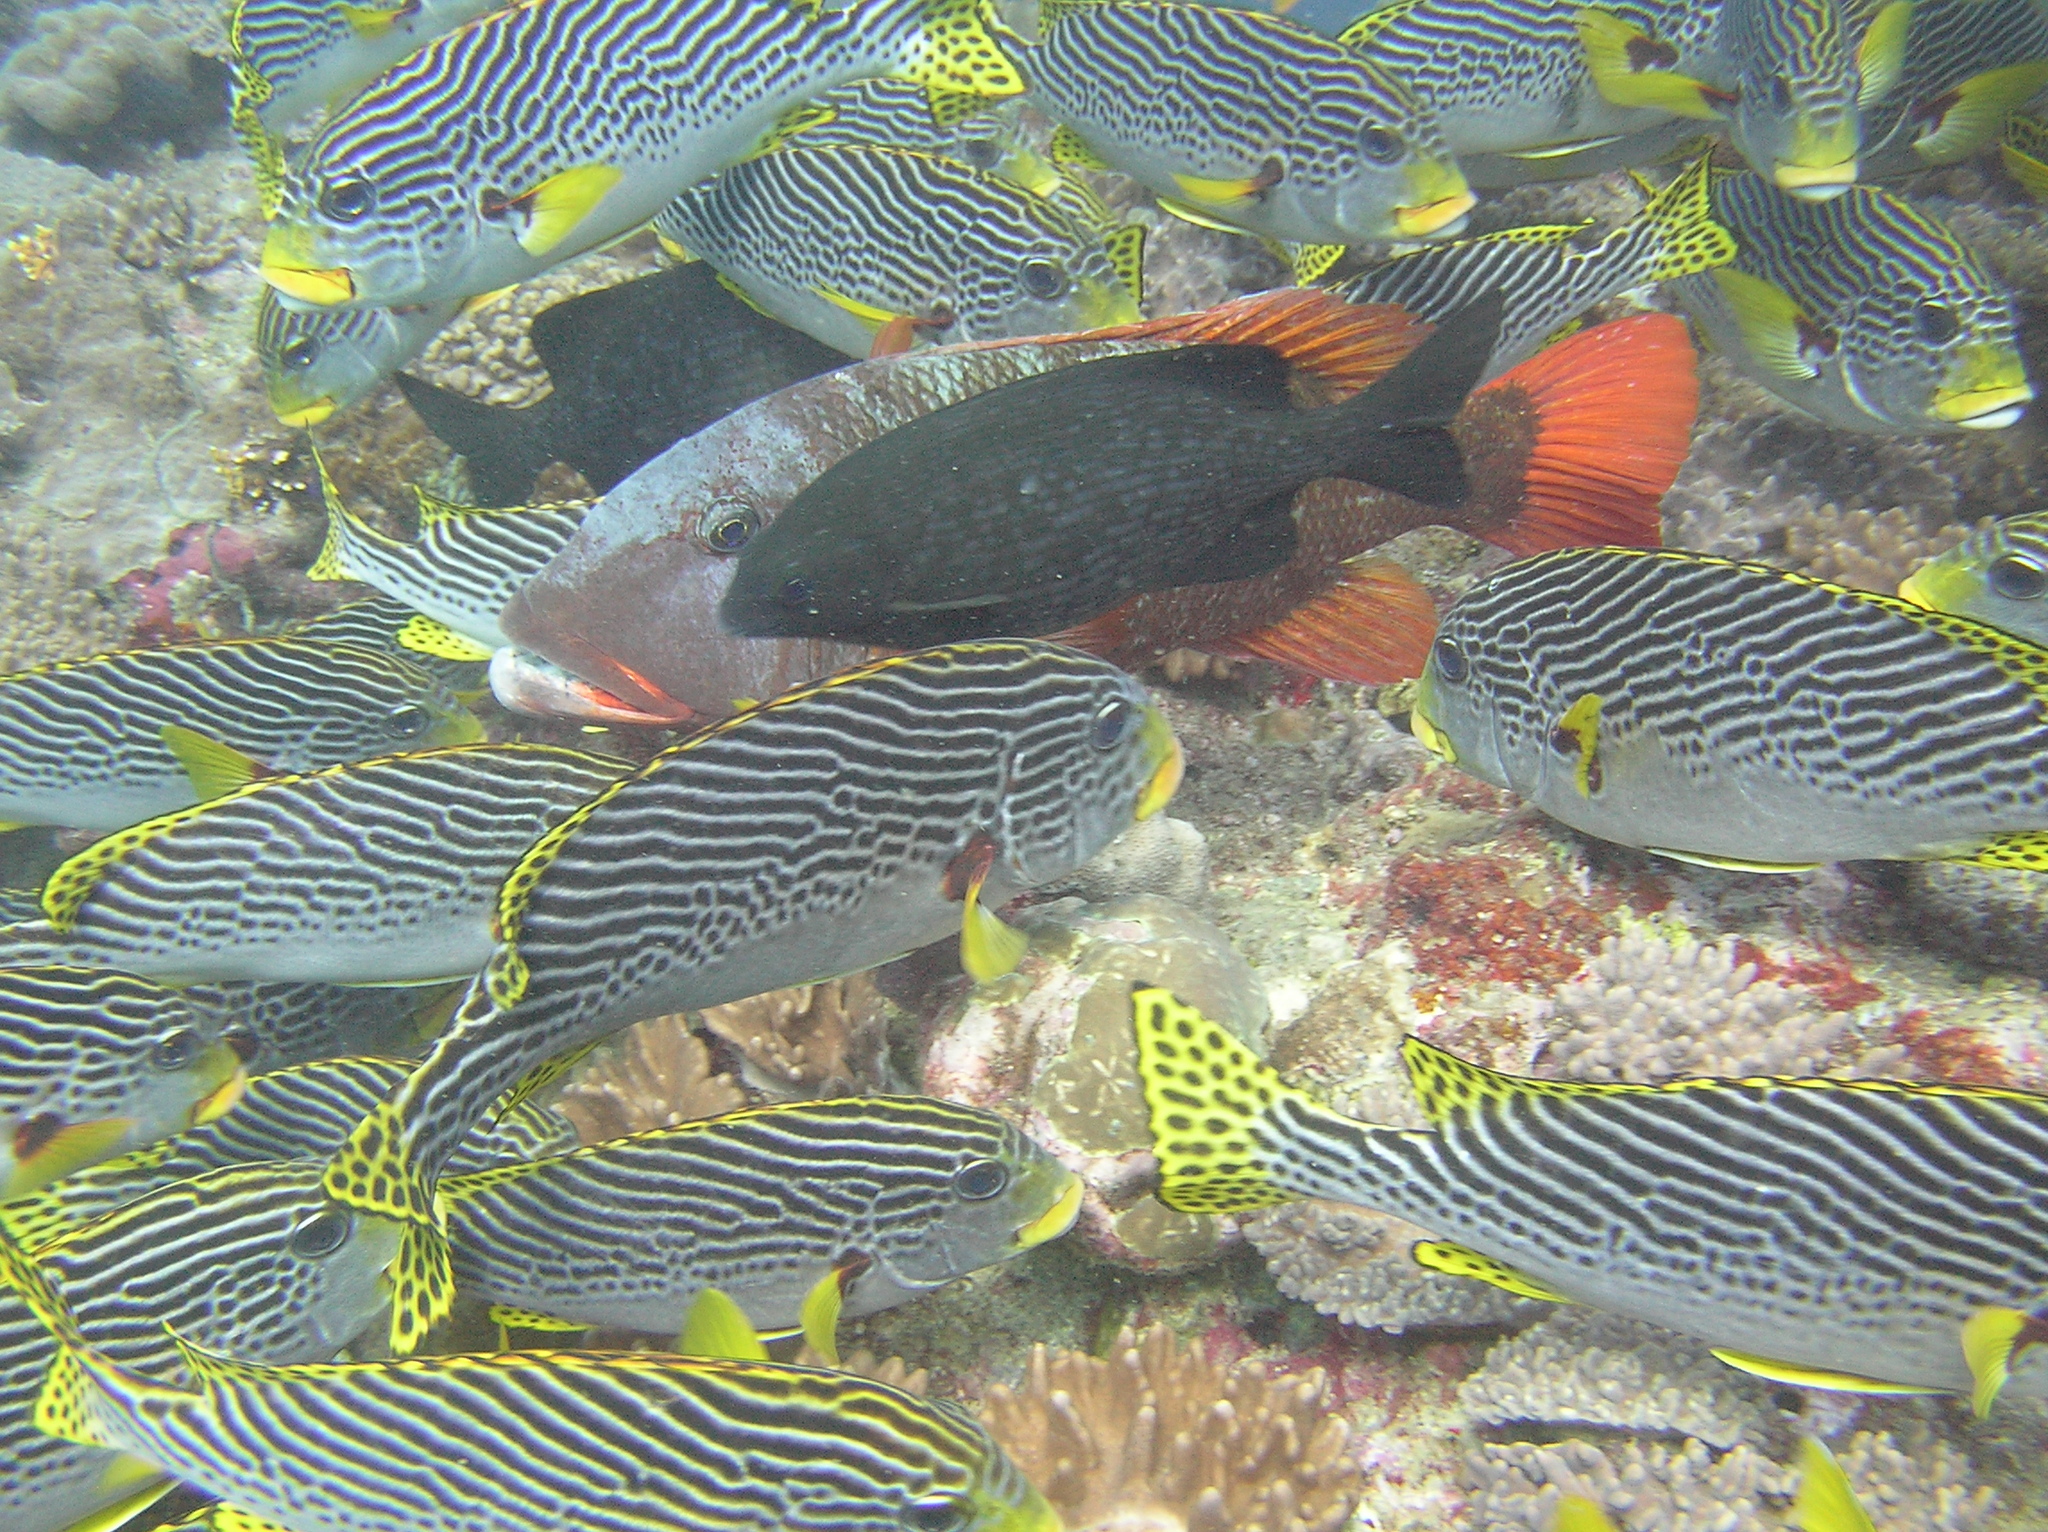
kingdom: Animalia
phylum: Chordata
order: Perciformes
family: Kyphosidae
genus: Kyphosus
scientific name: Kyphosus cinerascens
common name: Topsail drummer
